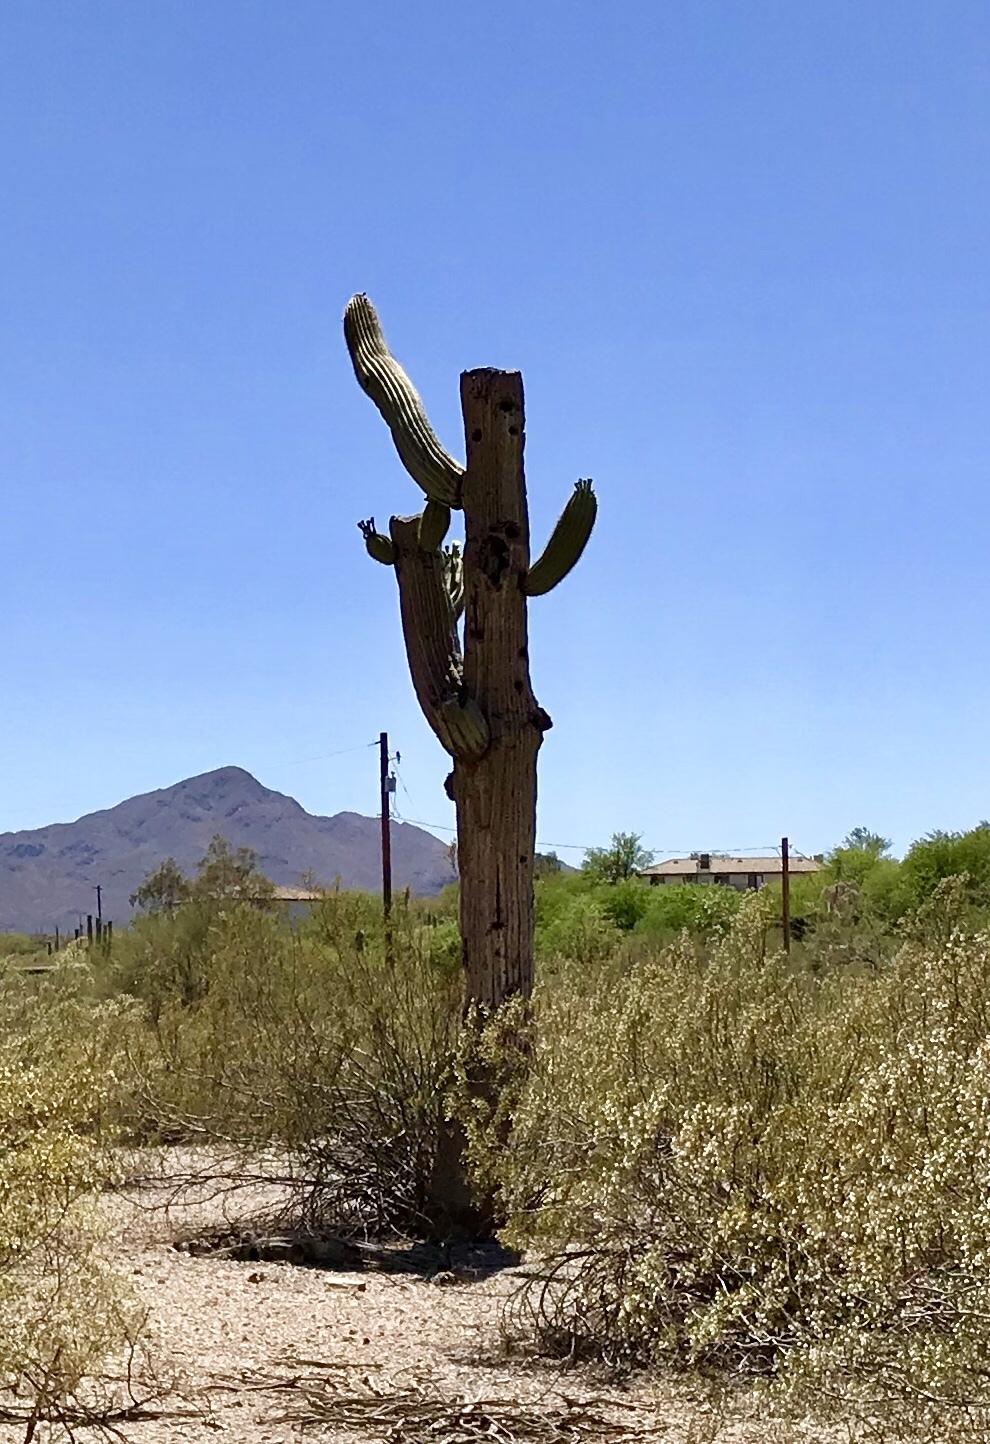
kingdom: Plantae
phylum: Tracheophyta
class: Magnoliopsida
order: Caryophyllales
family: Cactaceae
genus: Carnegiea
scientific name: Carnegiea gigantea
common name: Saguaro
